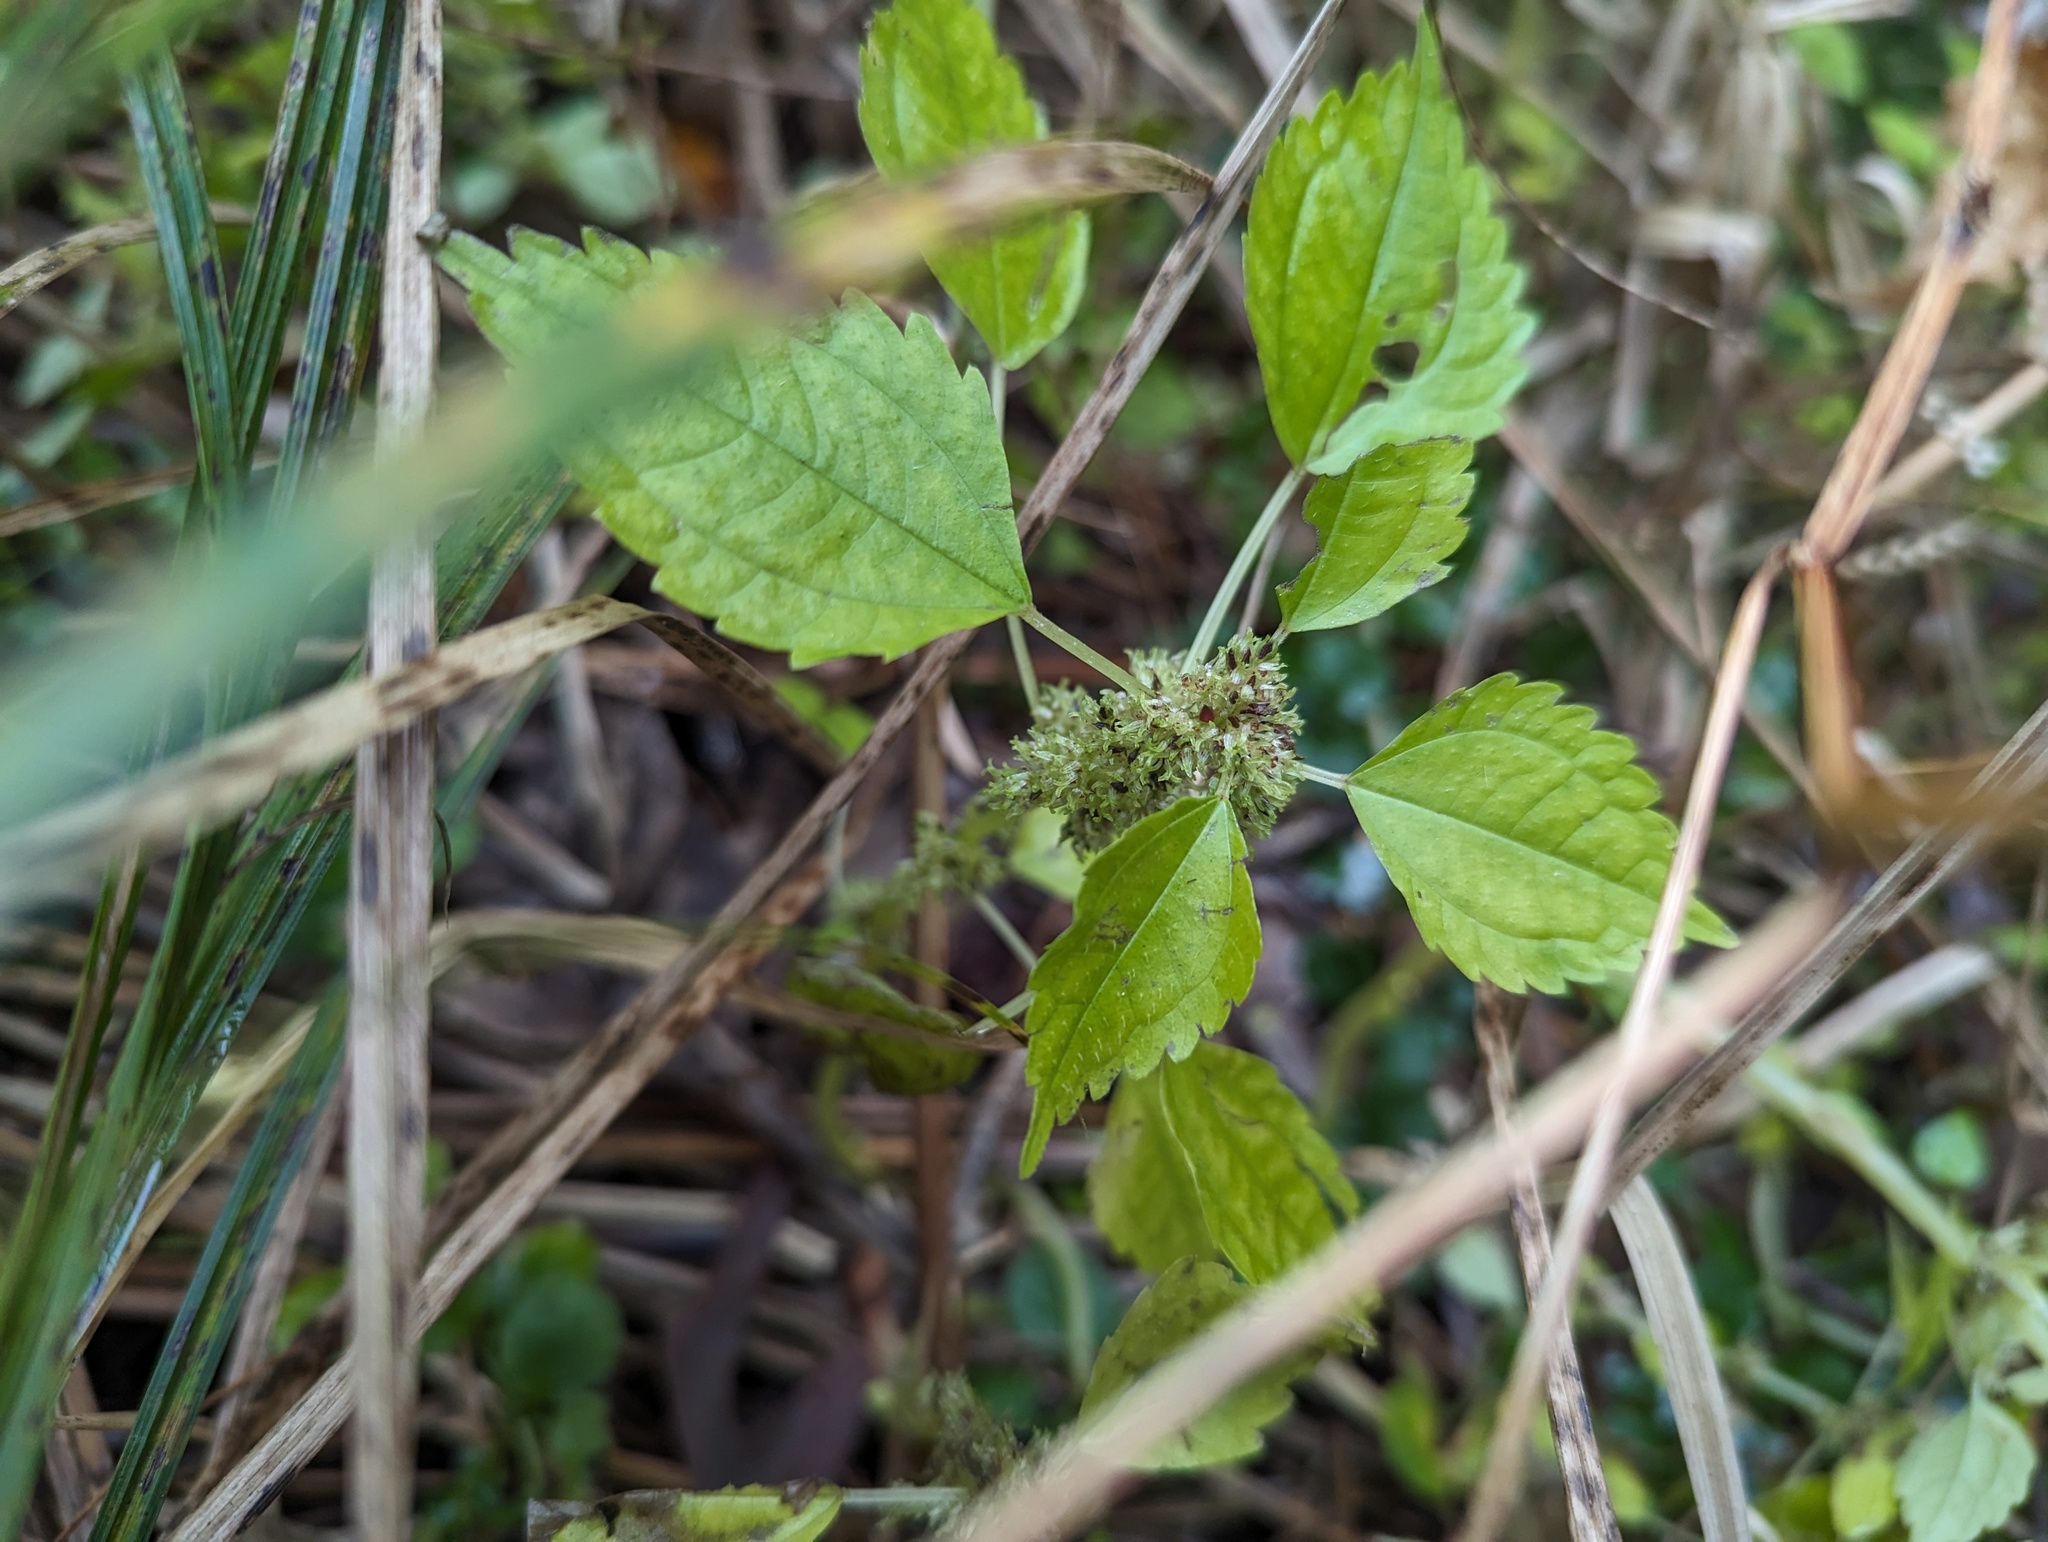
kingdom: Plantae
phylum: Tracheophyta
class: Magnoliopsida
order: Rosales
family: Urticaceae
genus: Pilea
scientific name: Pilea fontana
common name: Clearweed
